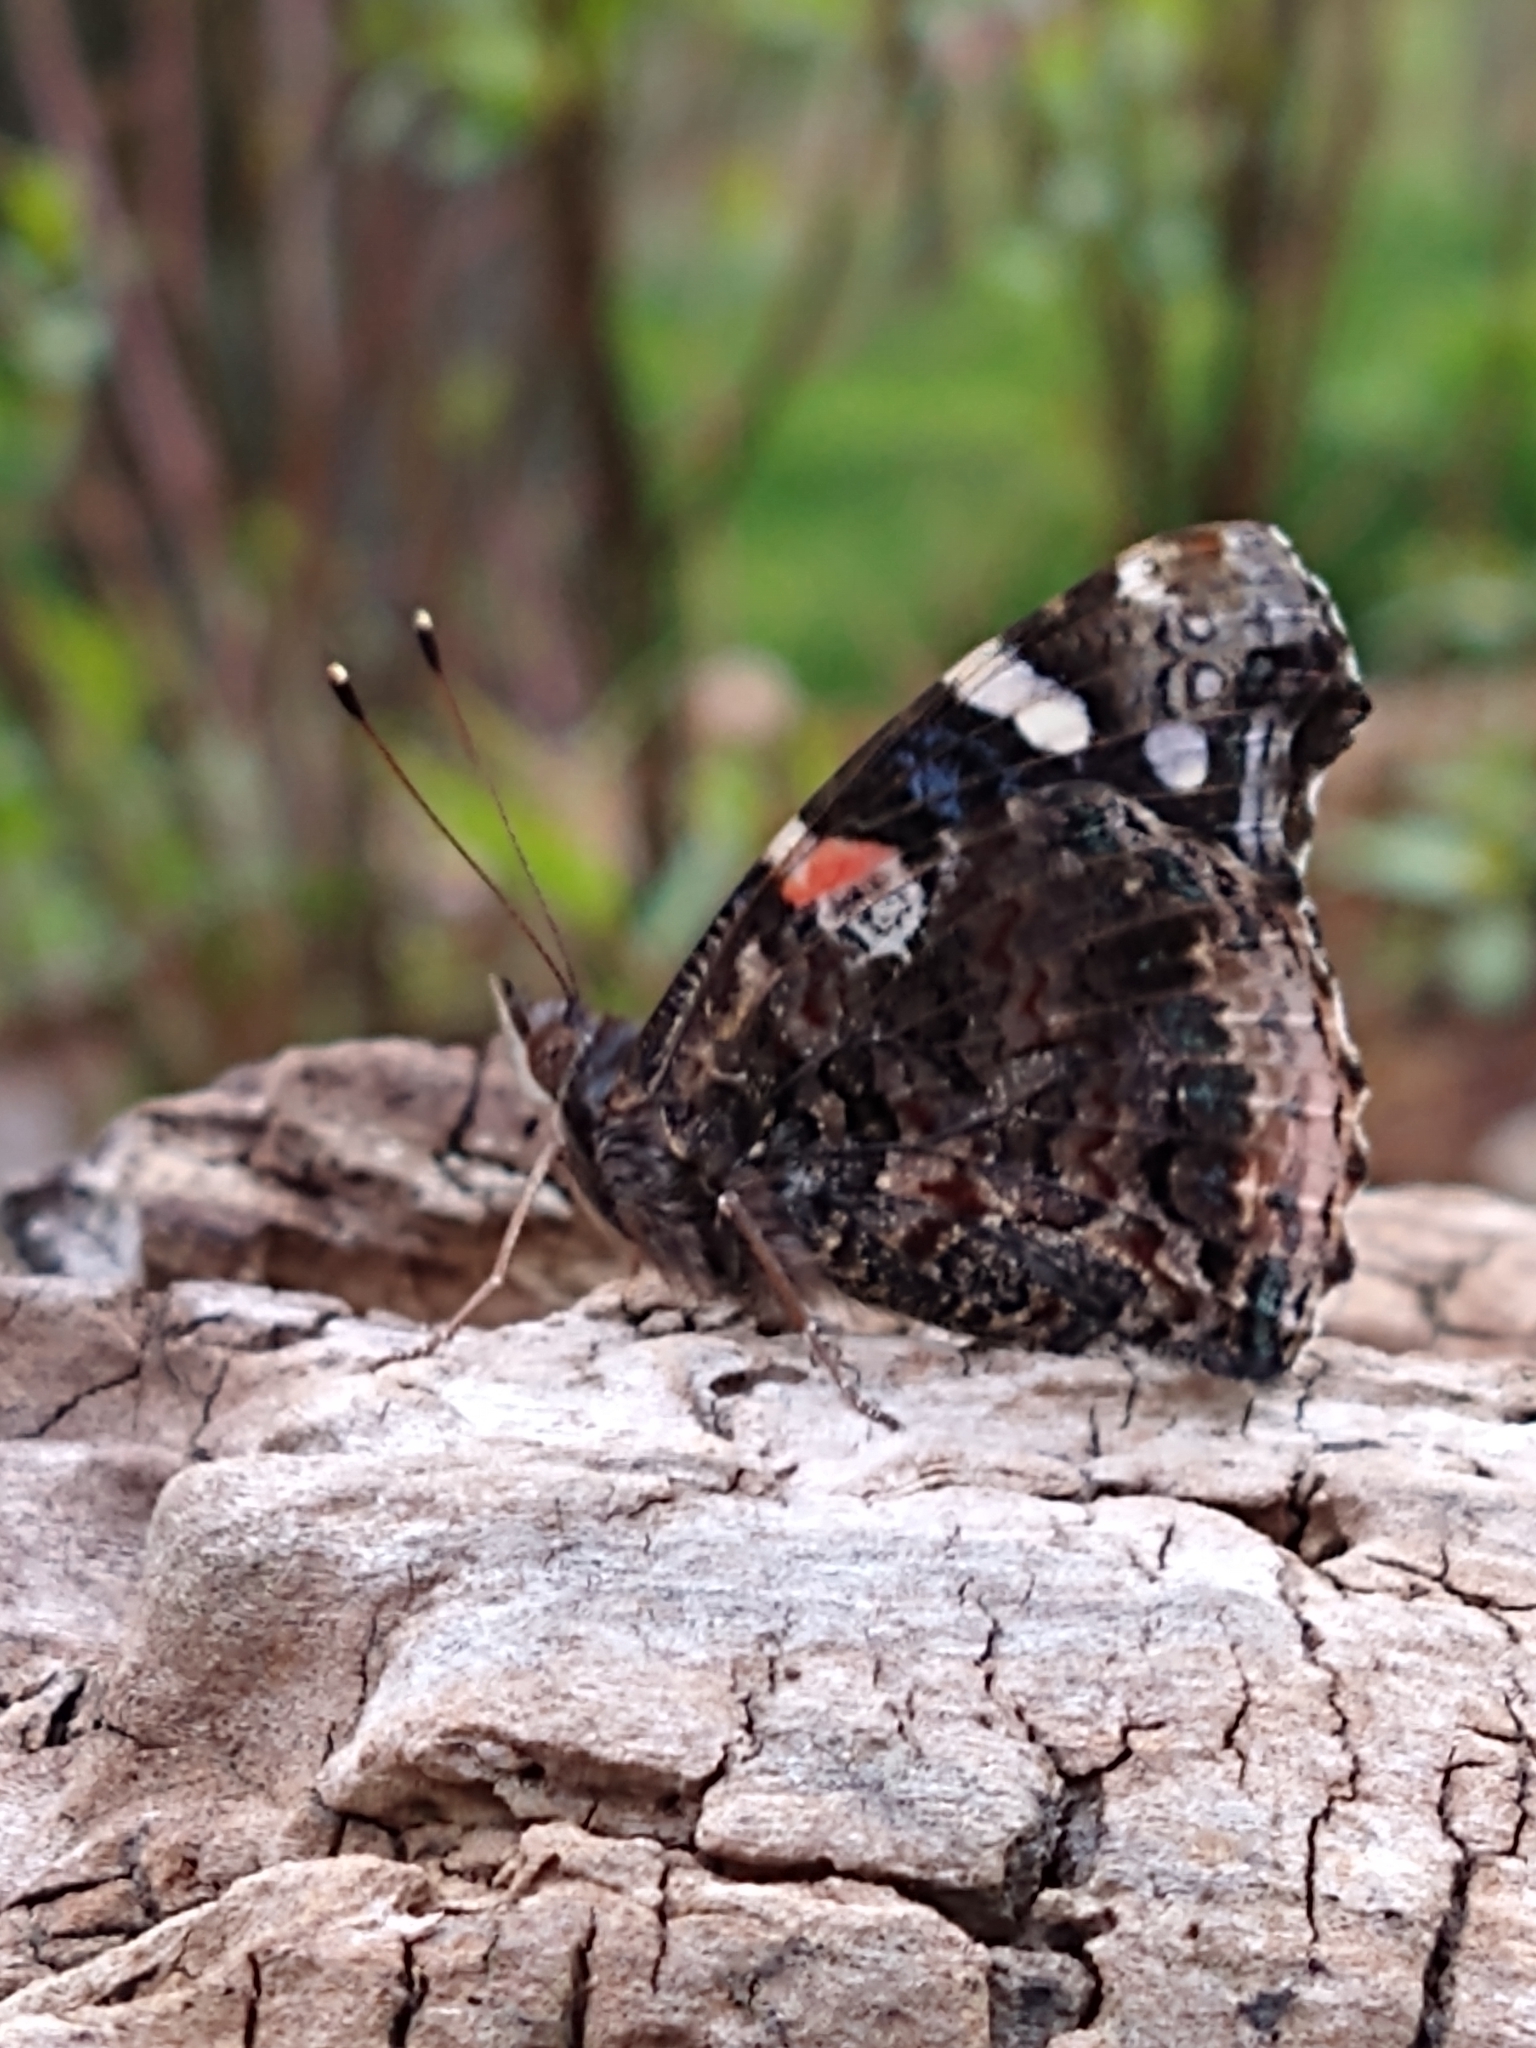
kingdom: Animalia
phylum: Arthropoda
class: Insecta
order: Lepidoptera
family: Nymphalidae
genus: Vanessa
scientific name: Vanessa atalanta
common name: Red admiral
